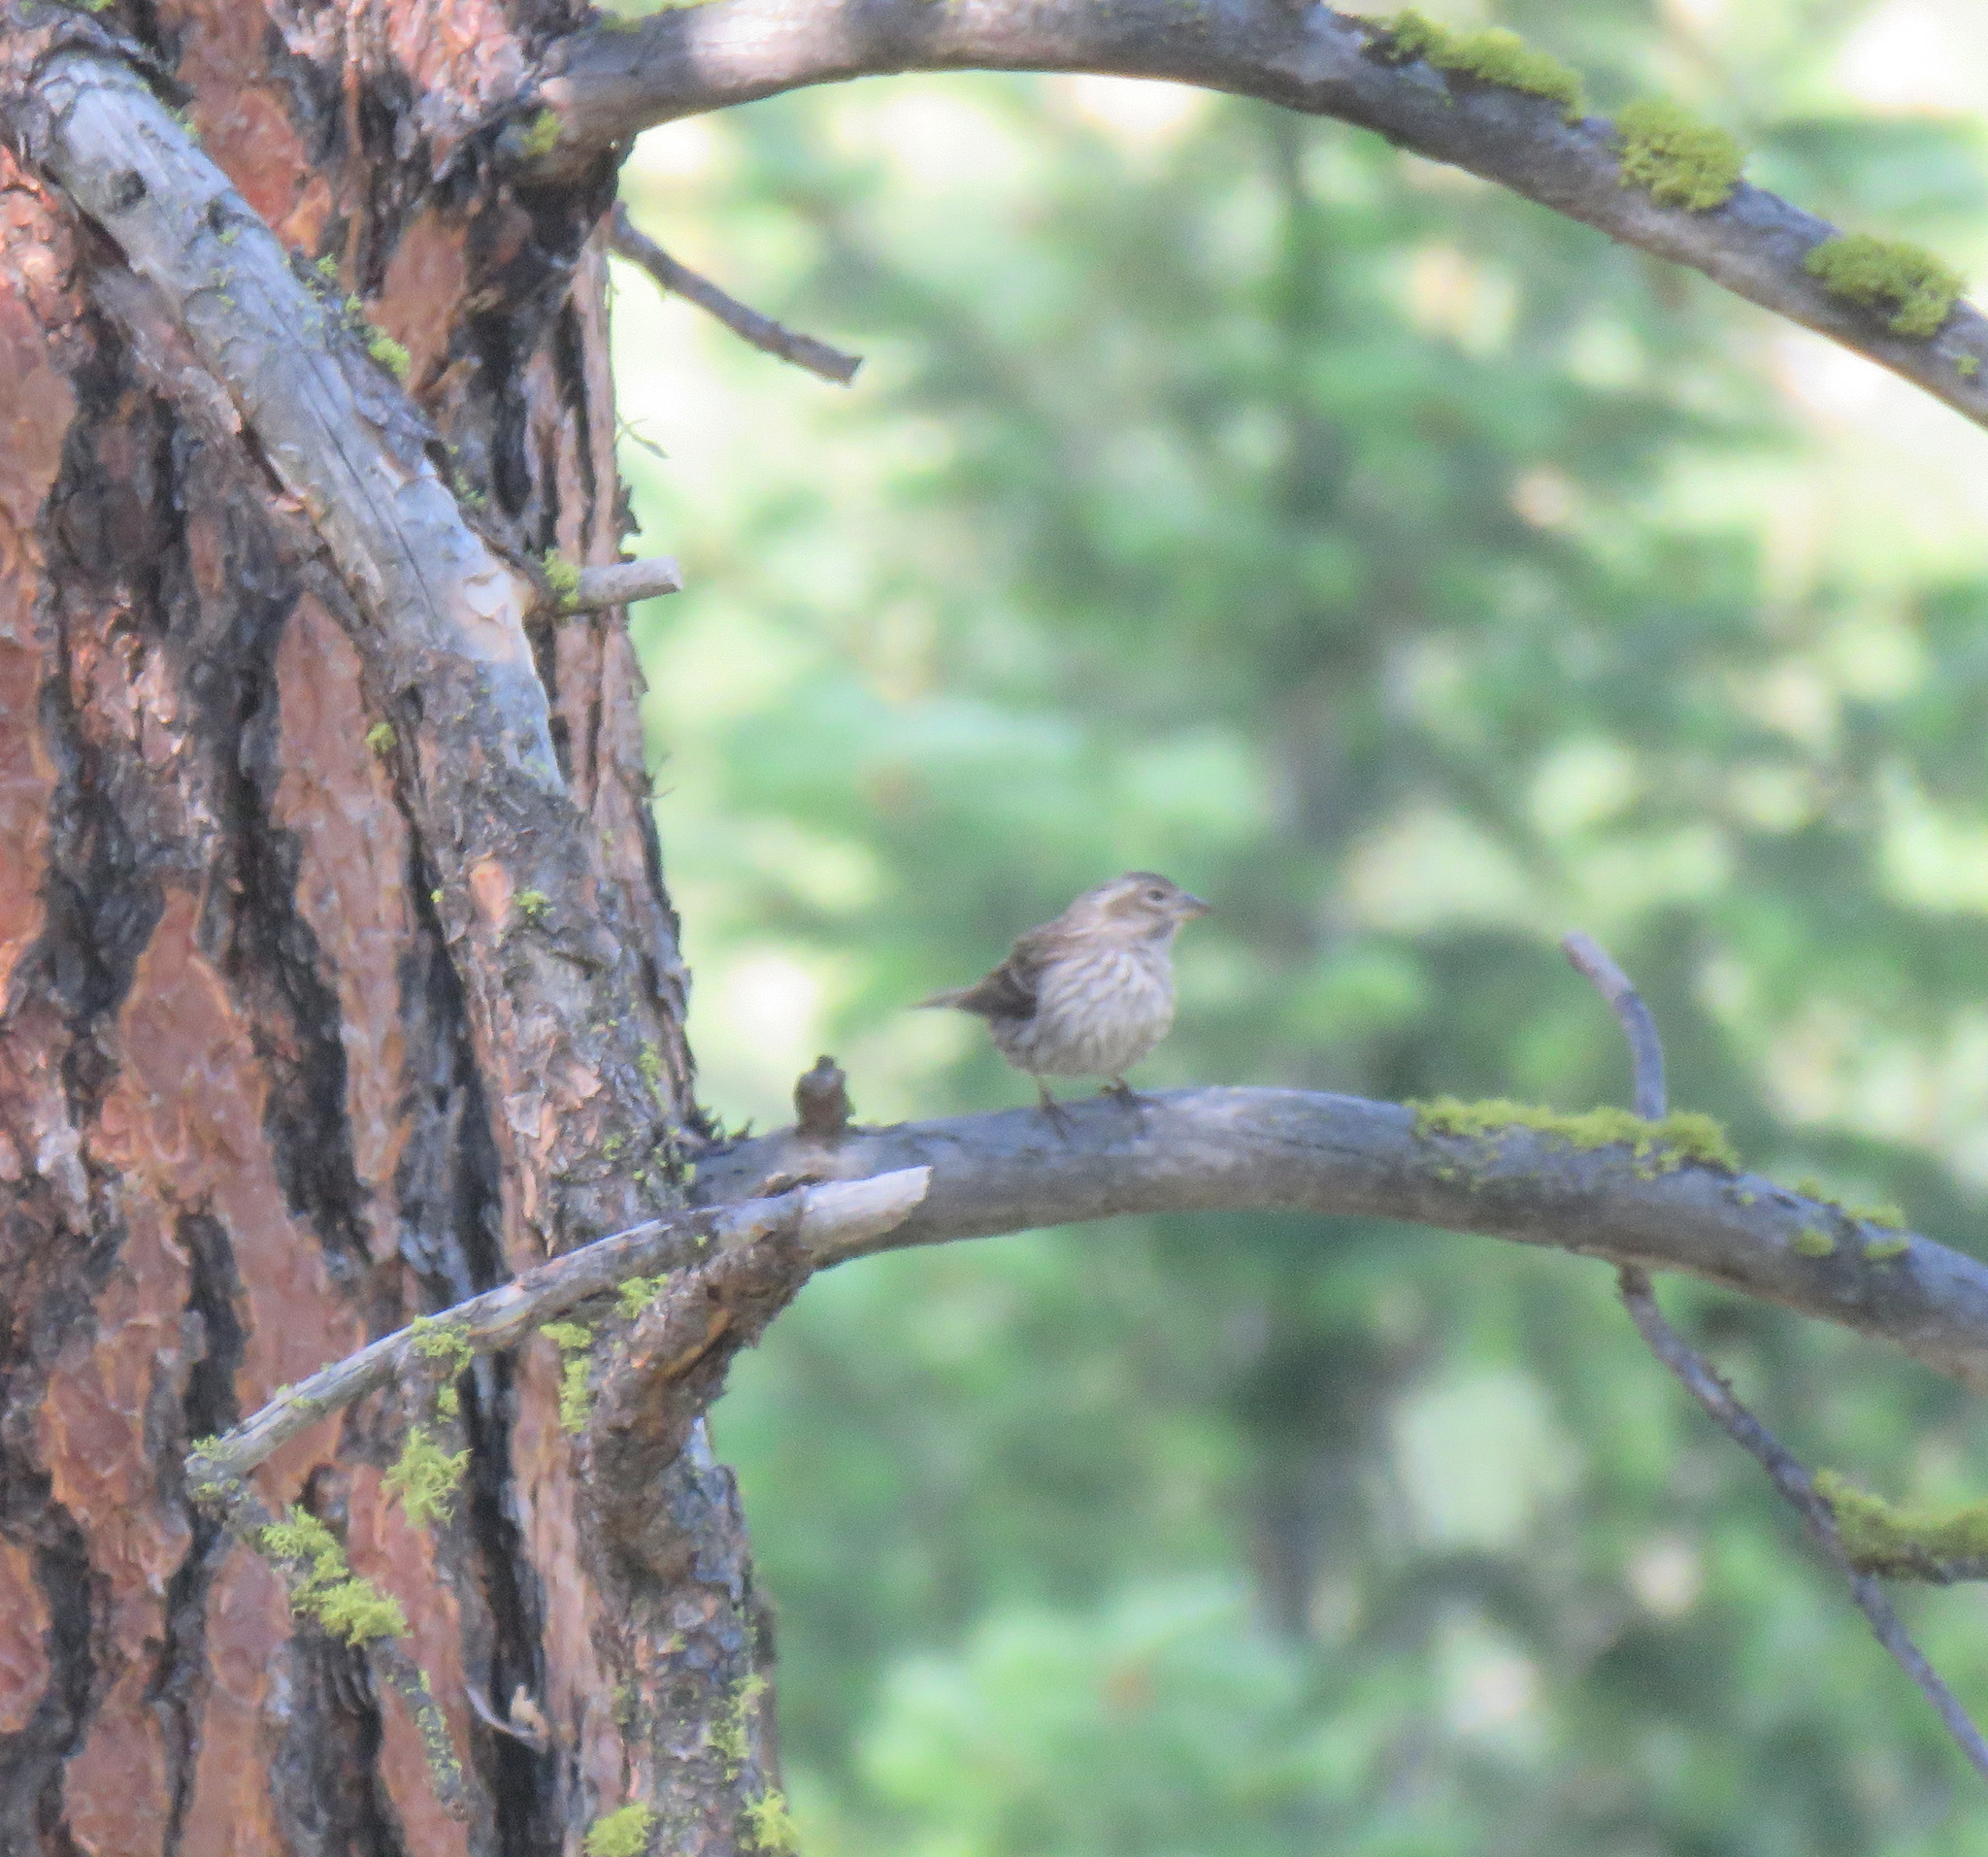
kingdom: Animalia
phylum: Chordata
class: Aves
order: Passeriformes
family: Fringillidae
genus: Haemorhous
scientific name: Haemorhous cassinii
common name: Cassin's finch
